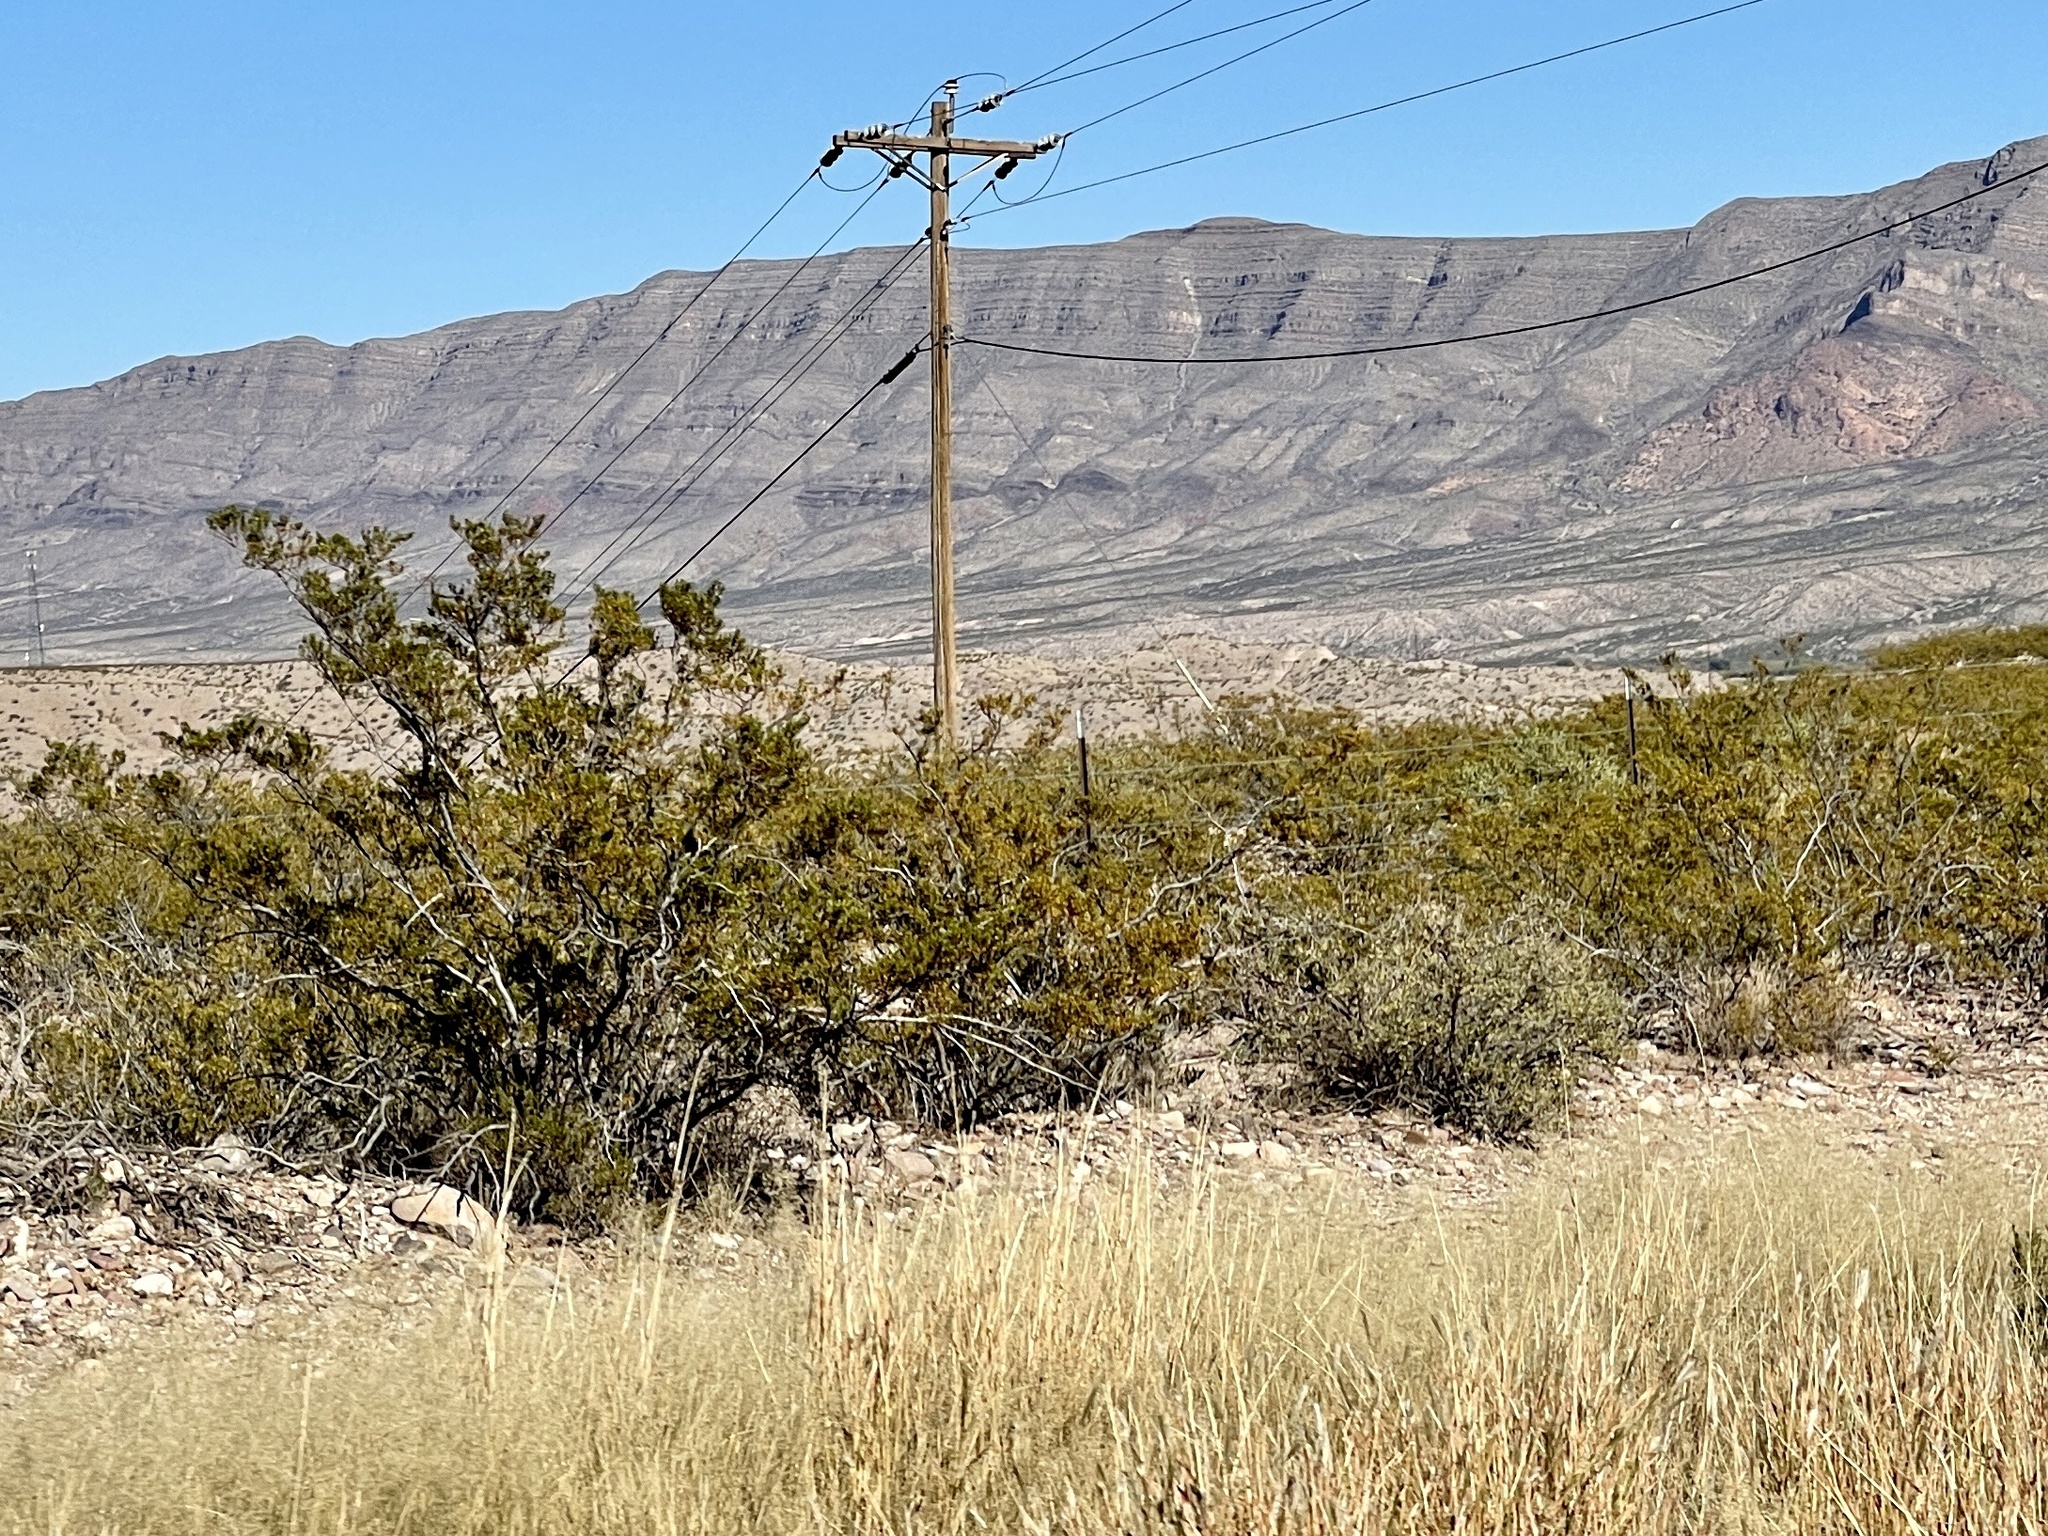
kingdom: Plantae
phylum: Tracheophyta
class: Magnoliopsida
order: Zygophyllales
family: Zygophyllaceae
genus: Larrea
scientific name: Larrea tridentata
